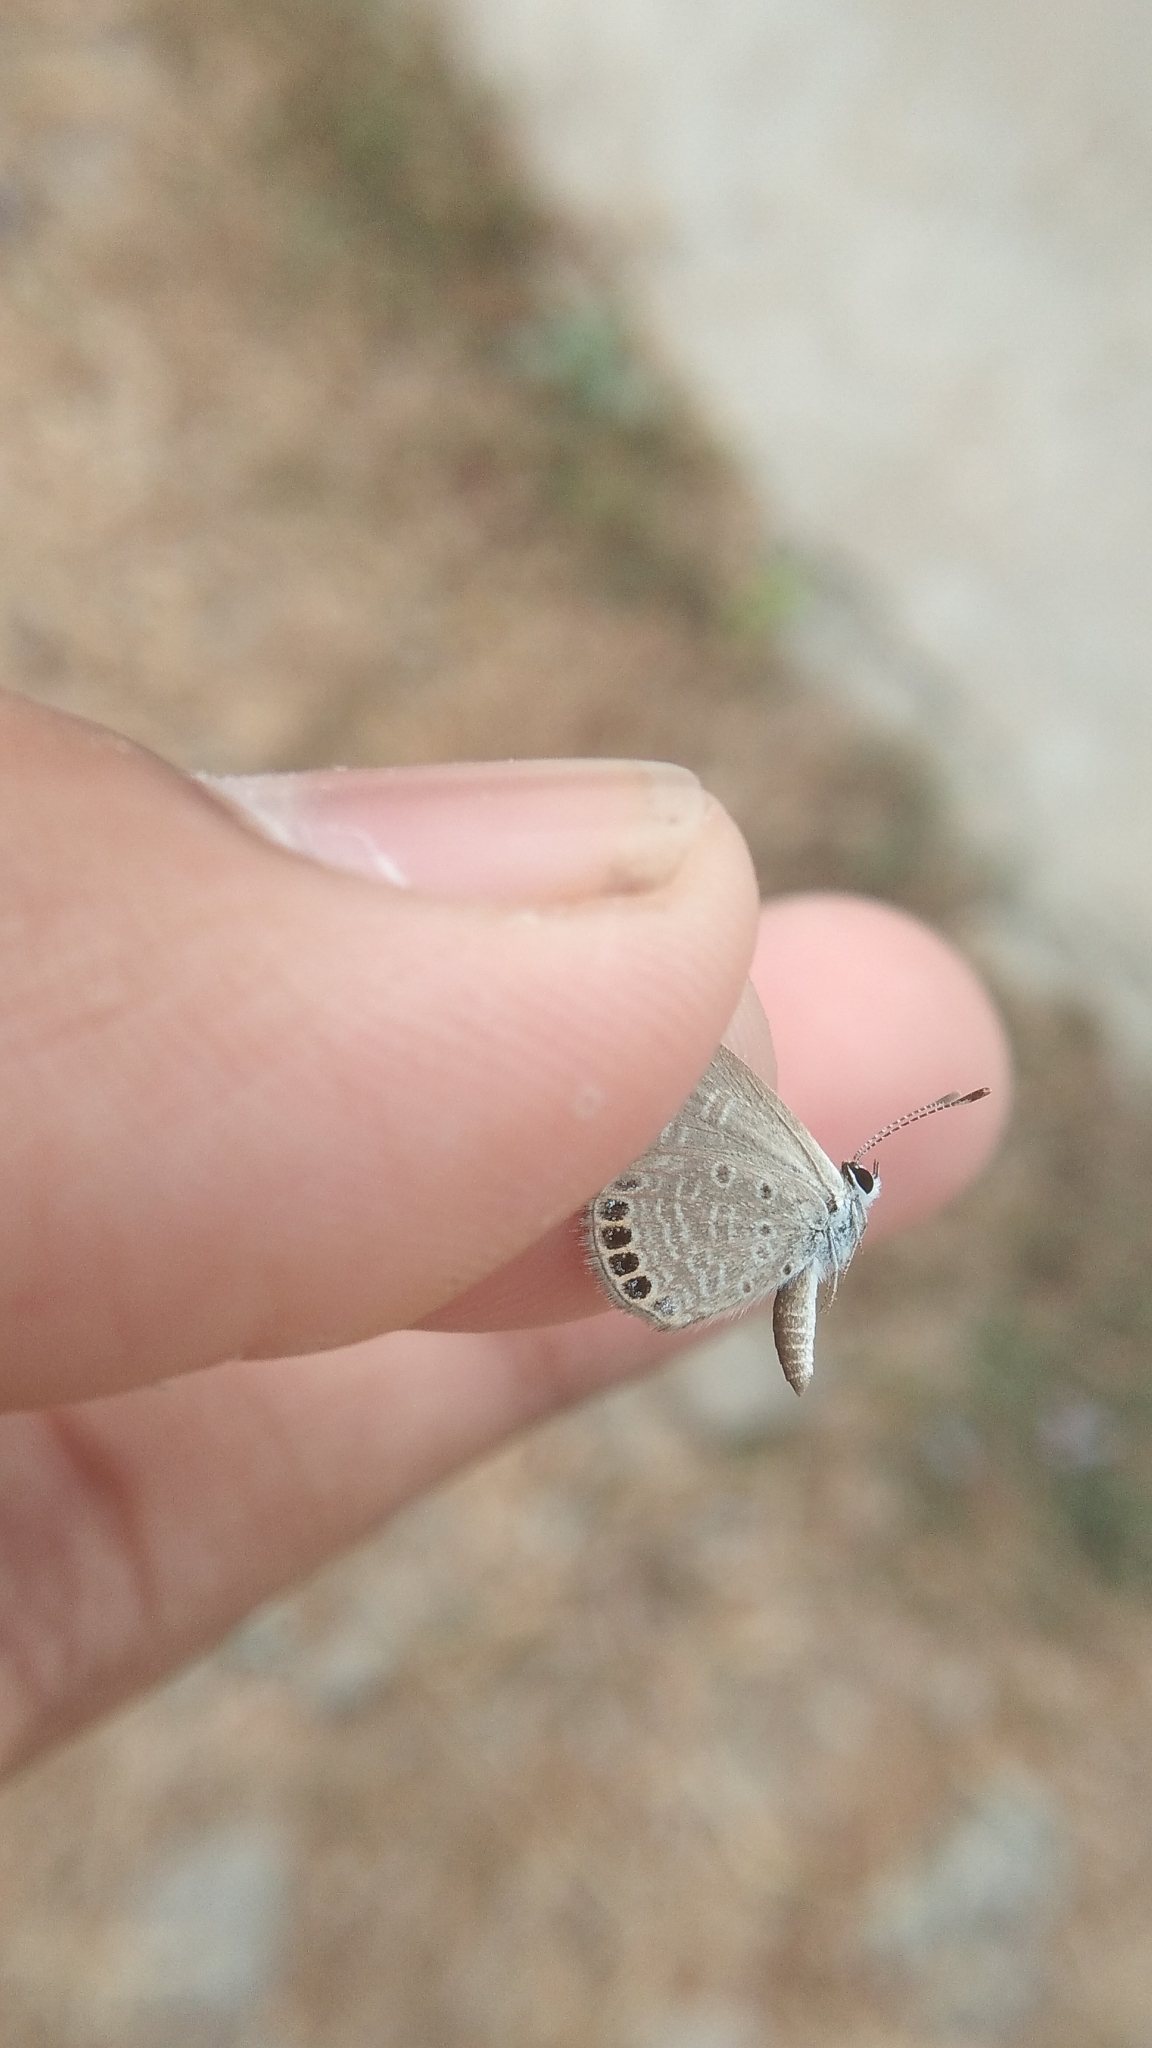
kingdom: Animalia
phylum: Arthropoda
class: Insecta
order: Lepidoptera
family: Lycaenidae
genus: Freyeria
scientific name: Freyeria putli
